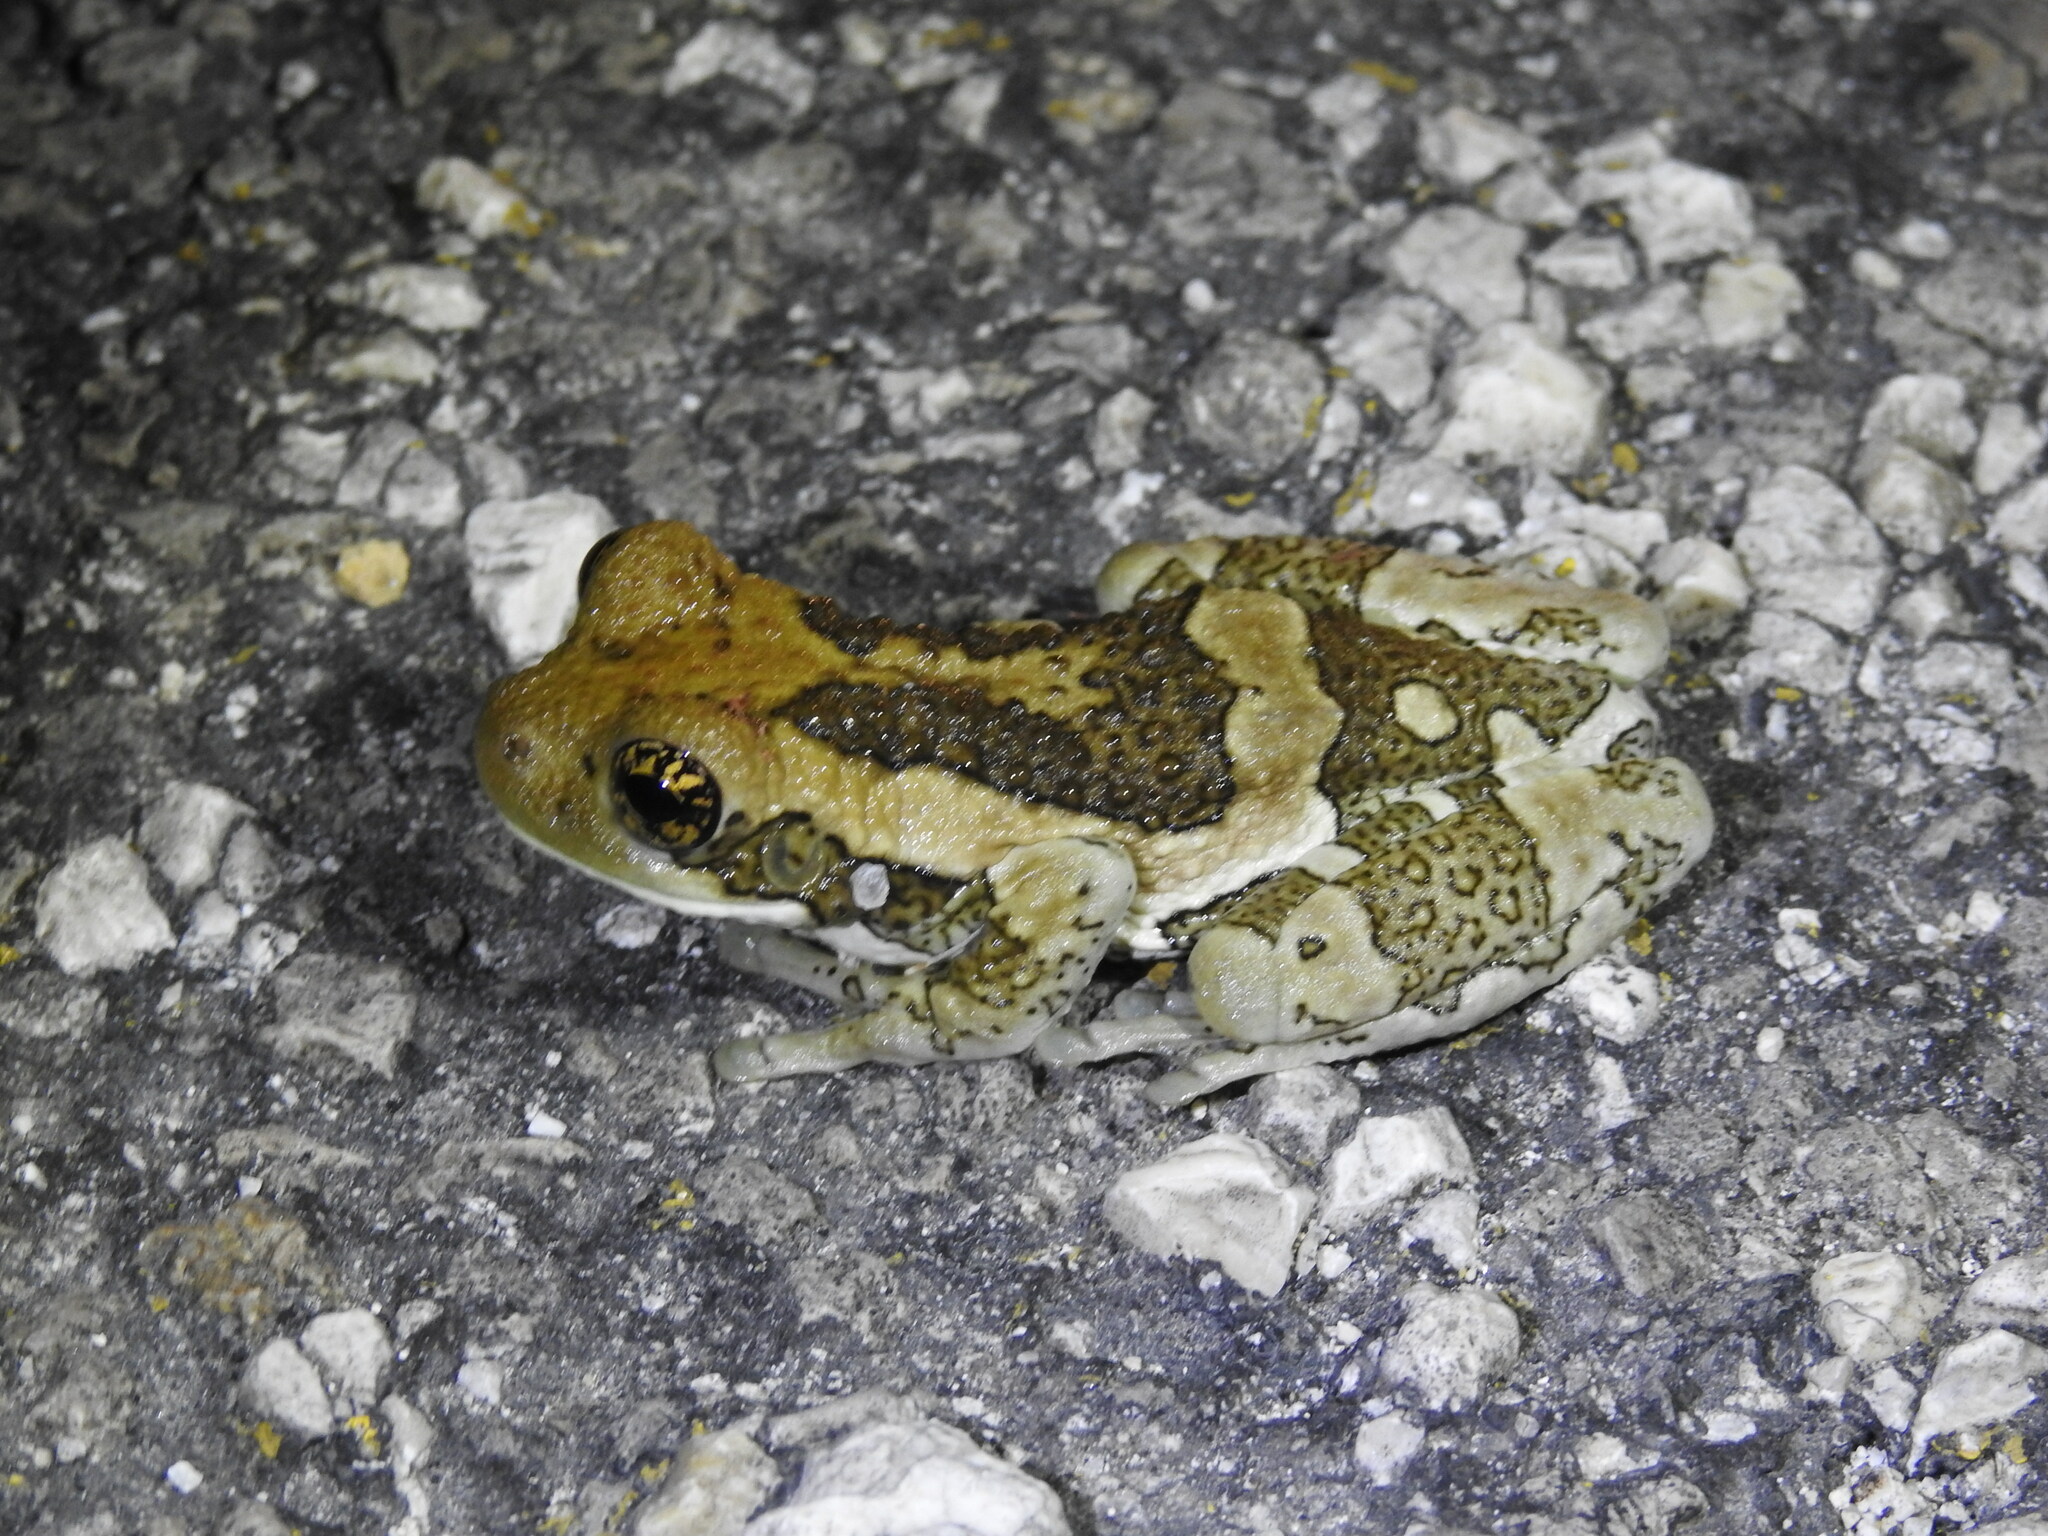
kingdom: Animalia
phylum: Chordata
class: Amphibia
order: Anura
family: Hylidae
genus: Trachycephalus
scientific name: Trachycephalus vermiculatus
